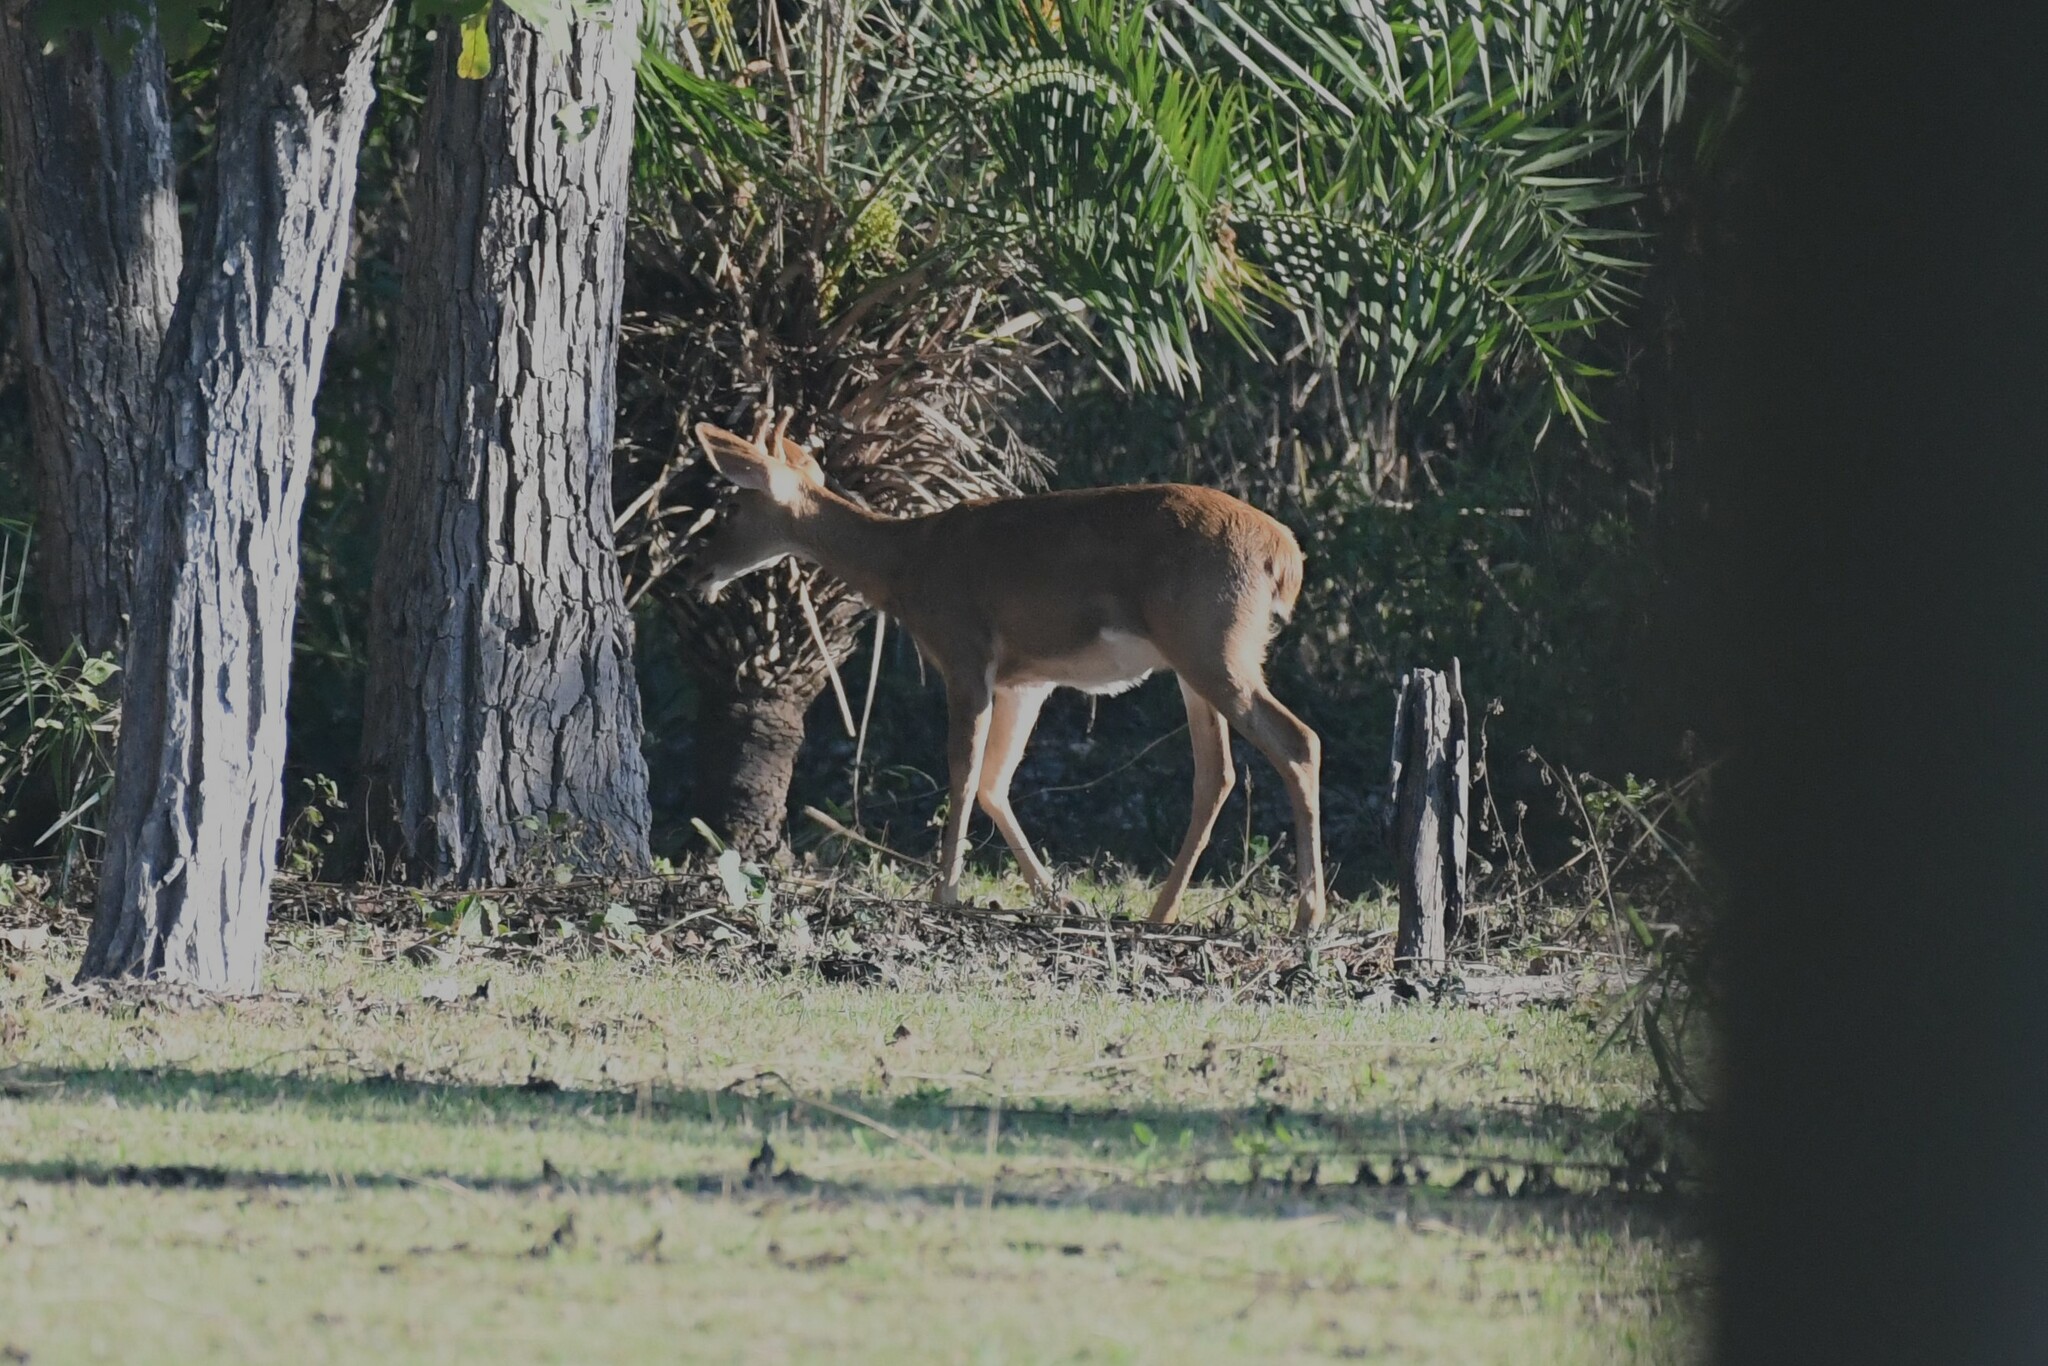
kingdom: Animalia
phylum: Chordata
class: Mammalia
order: Artiodactyla
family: Cervidae
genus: Rucervus
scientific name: Rucervus eldii
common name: Eld's deer
